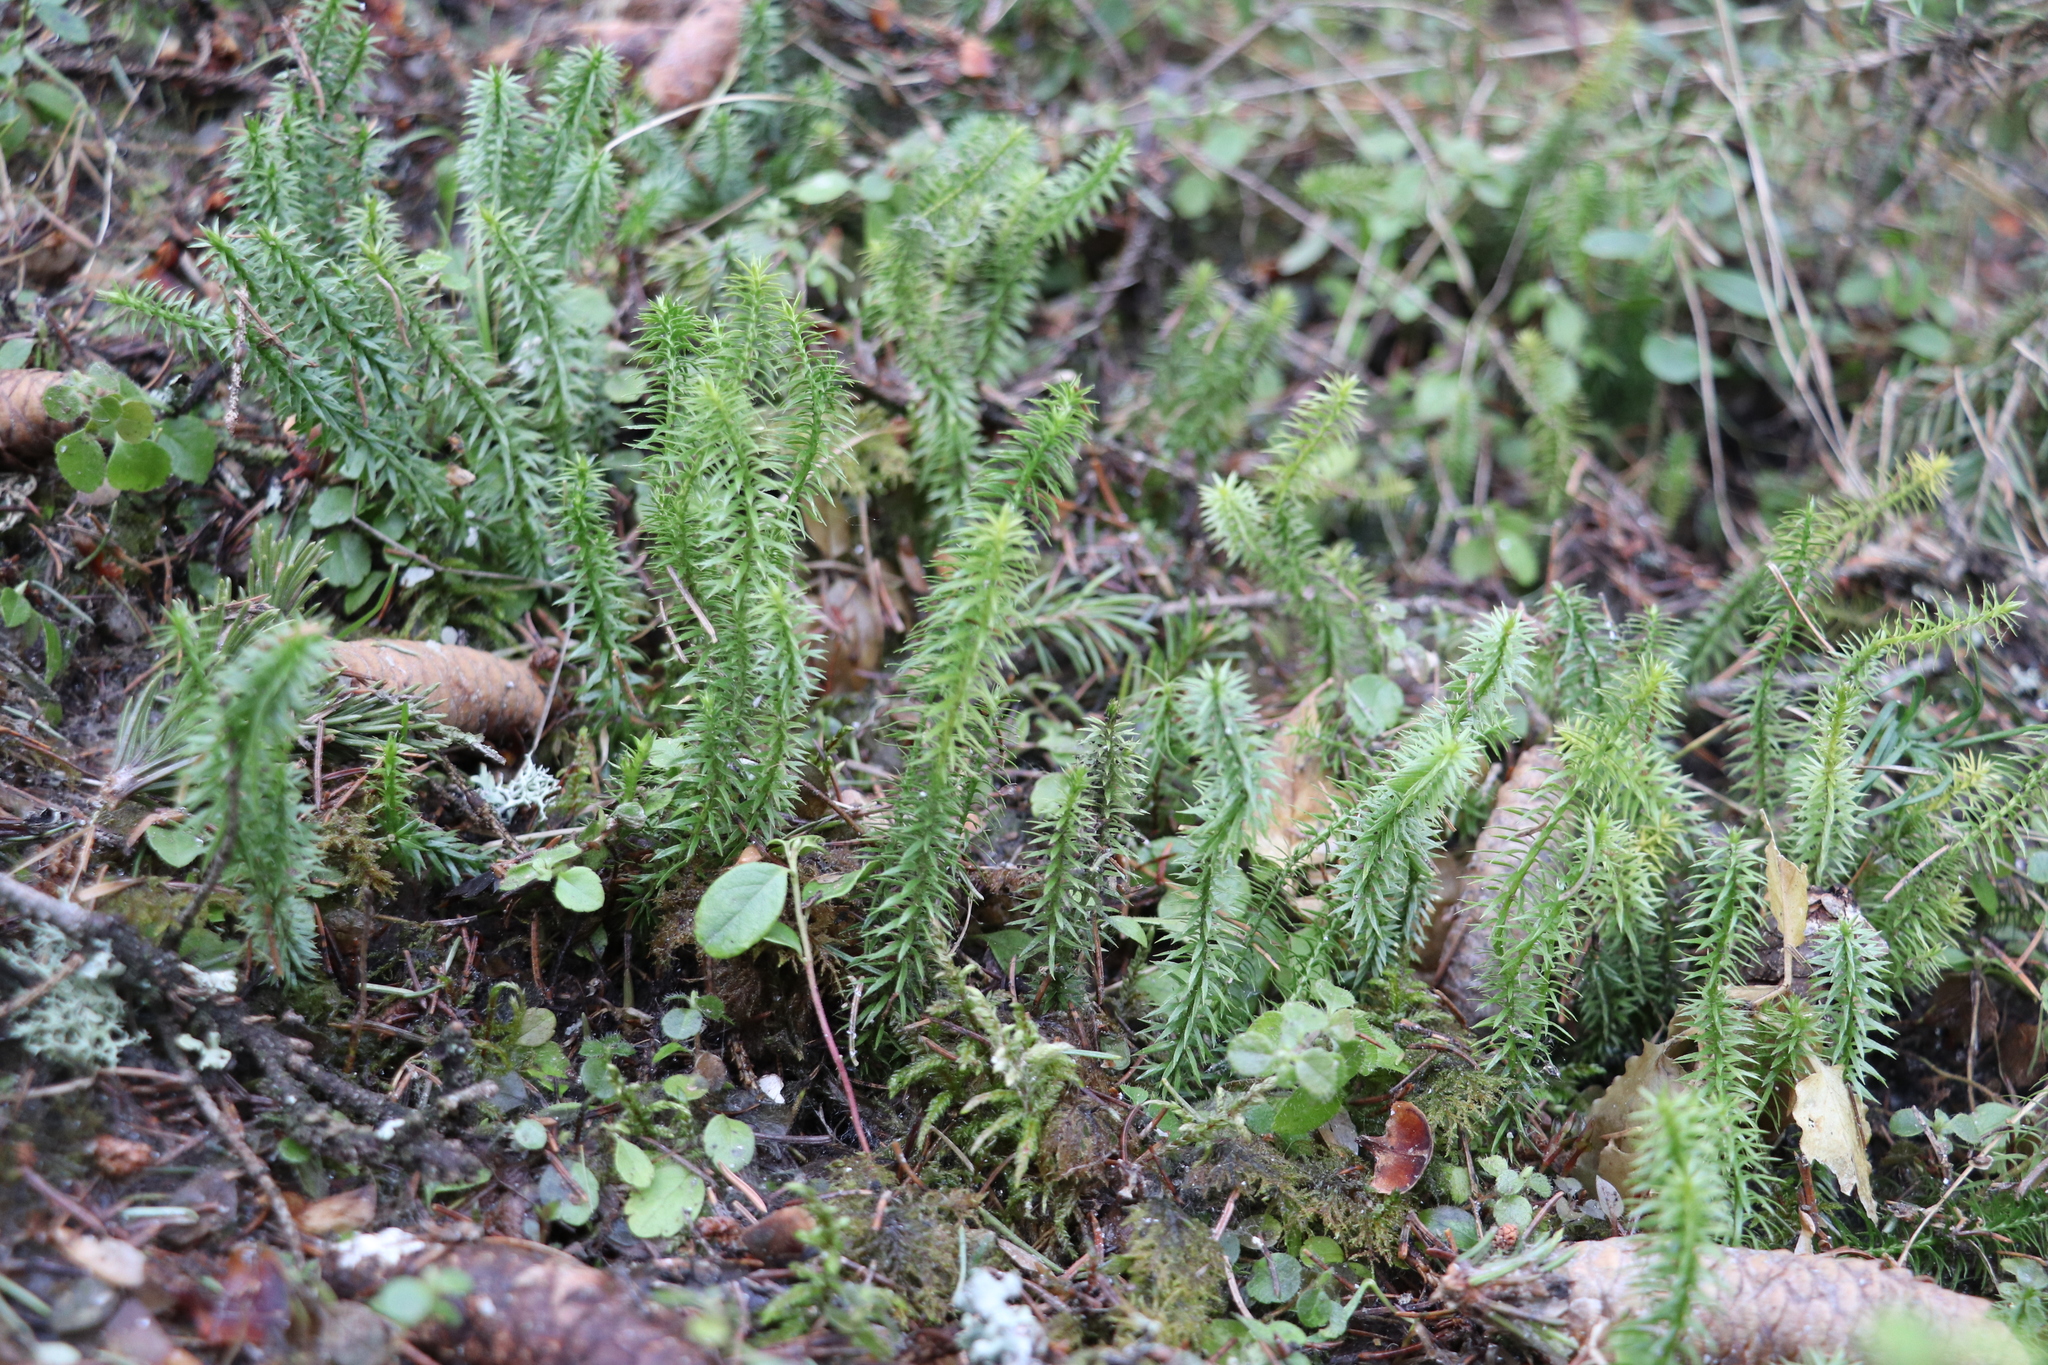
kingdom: Plantae
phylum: Tracheophyta
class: Lycopodiopsida
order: Lycopodiales
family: Lycopodiaceae
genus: Spinulum
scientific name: Spinulum annotinum
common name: Interrupted club-moss
